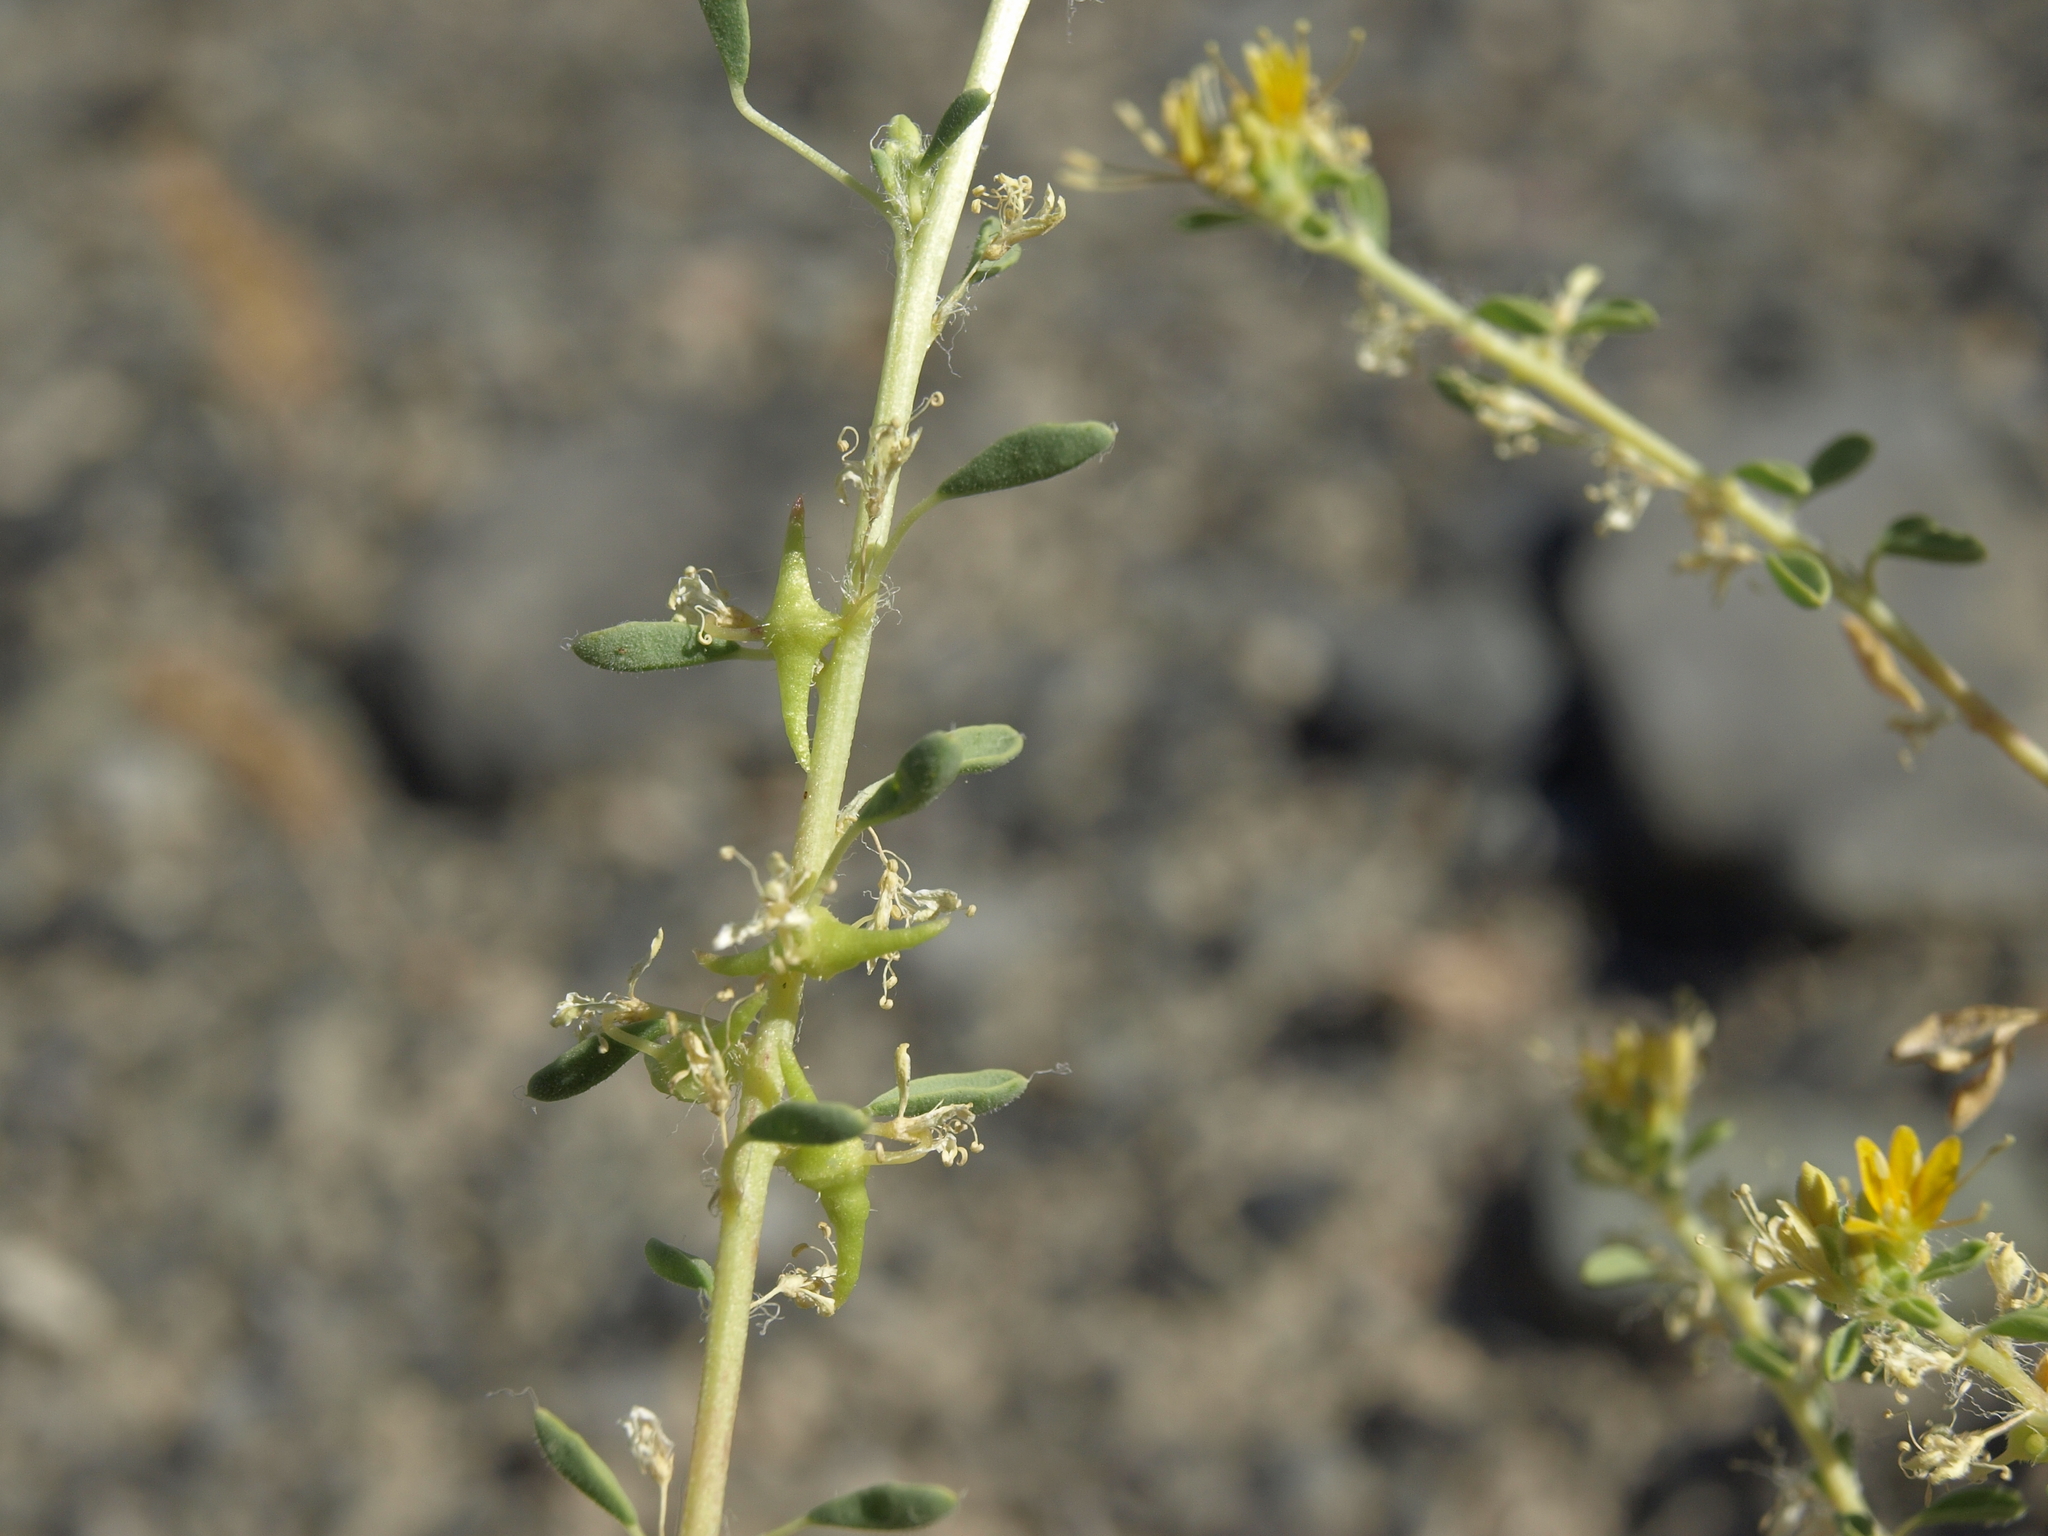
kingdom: Plantae
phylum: Tracheophyta
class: Magnoliopsida
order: Brassicales
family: Cleomaceae
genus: Cleomella
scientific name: Cleomella obtusifolia
